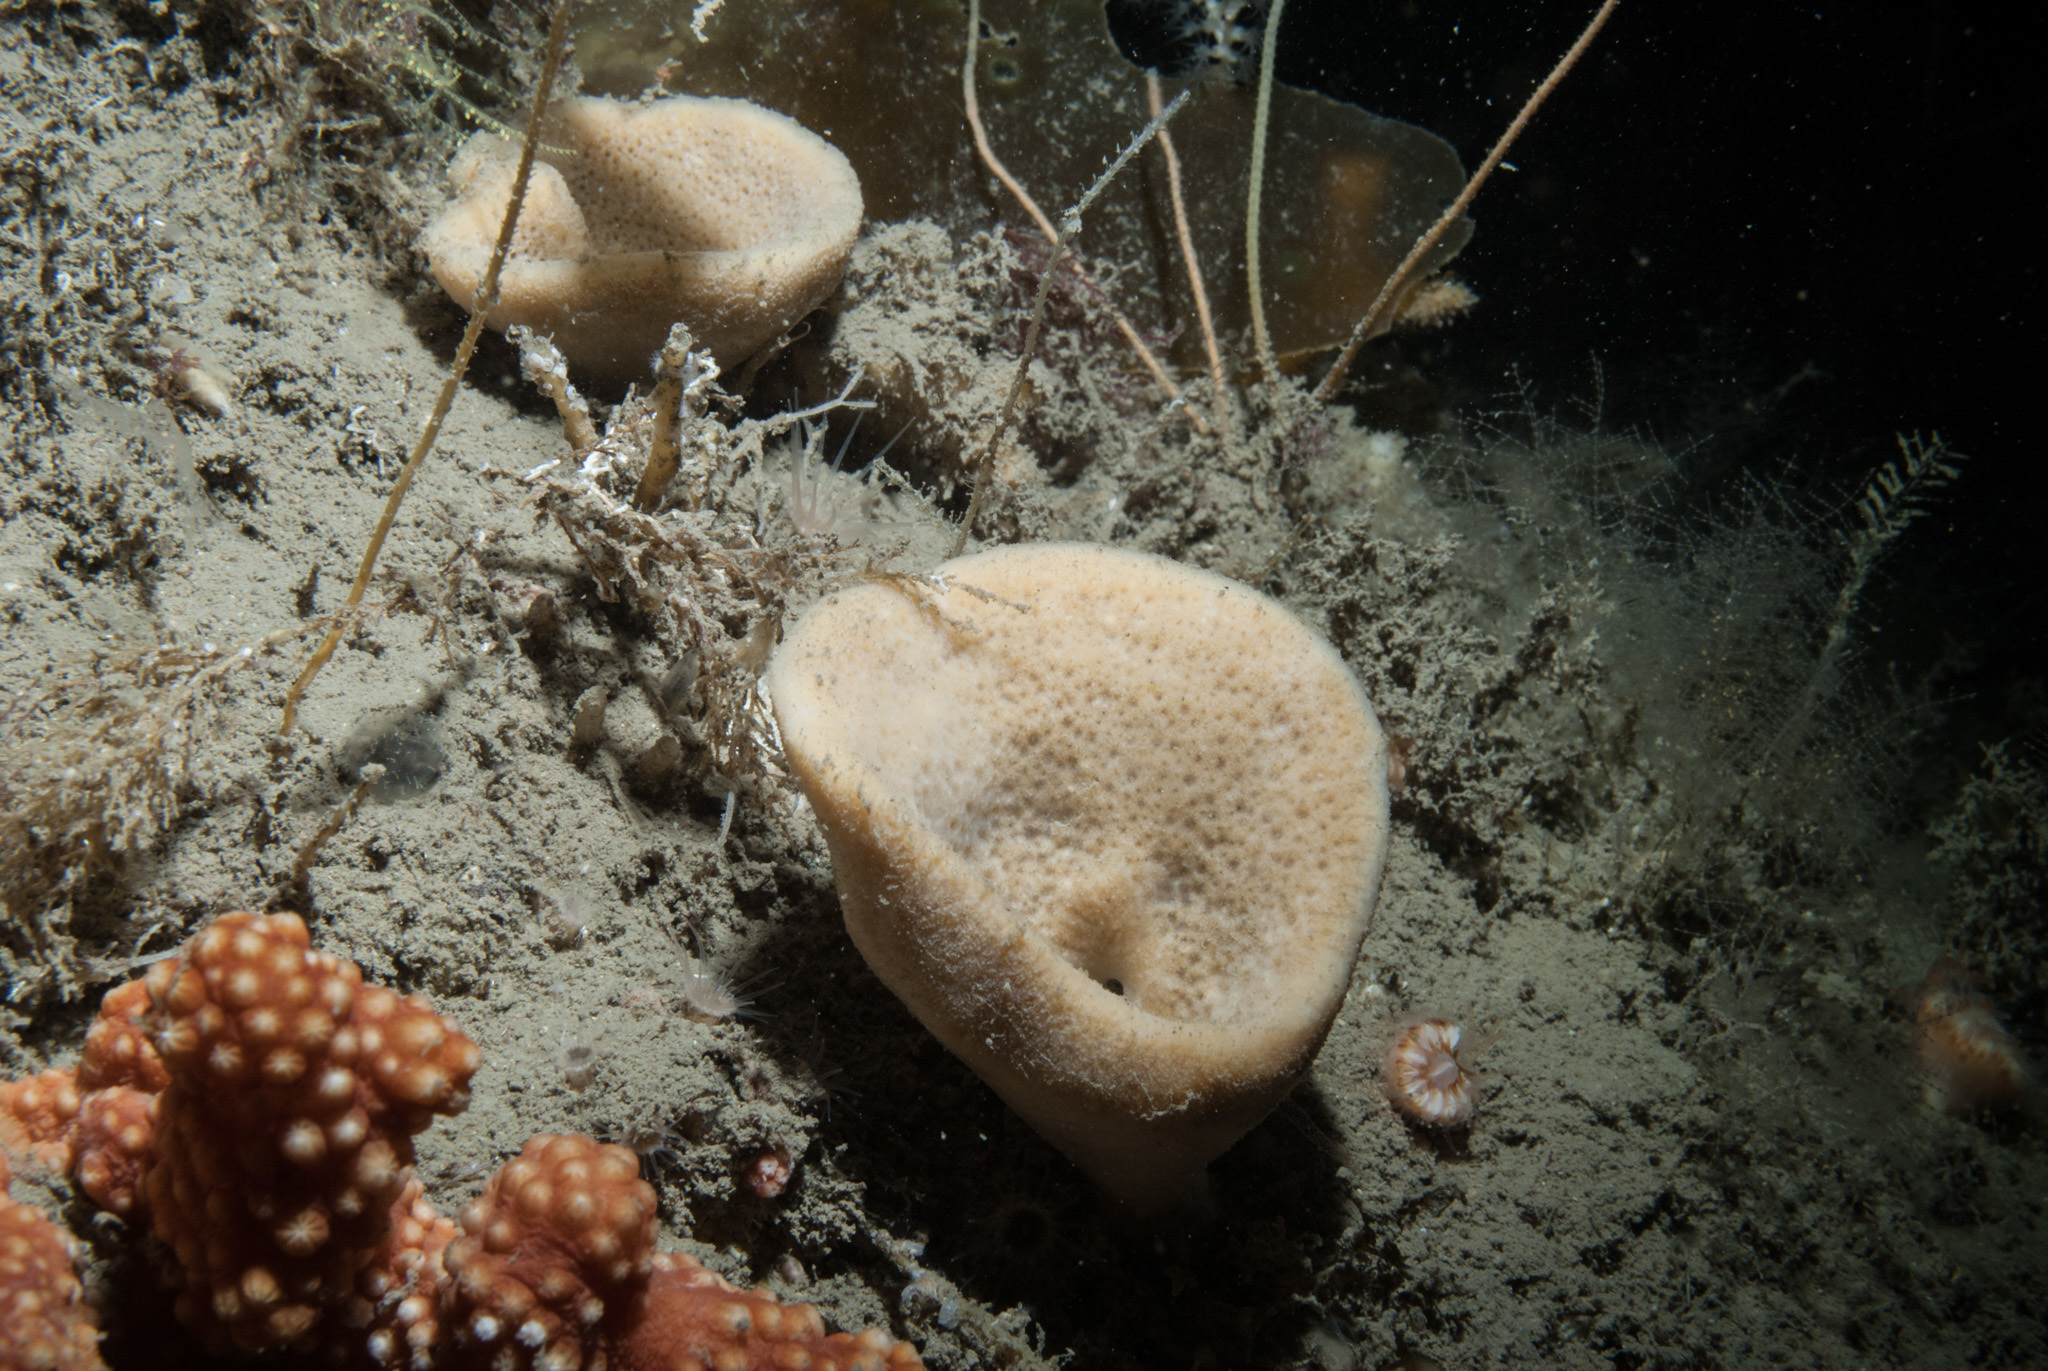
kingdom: Animalia
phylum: Porifera
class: Demospongiae
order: Axinellida
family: Axinellidae
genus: Axinella
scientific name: Axinella infundibuliformis
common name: North atlantic cup sponge
